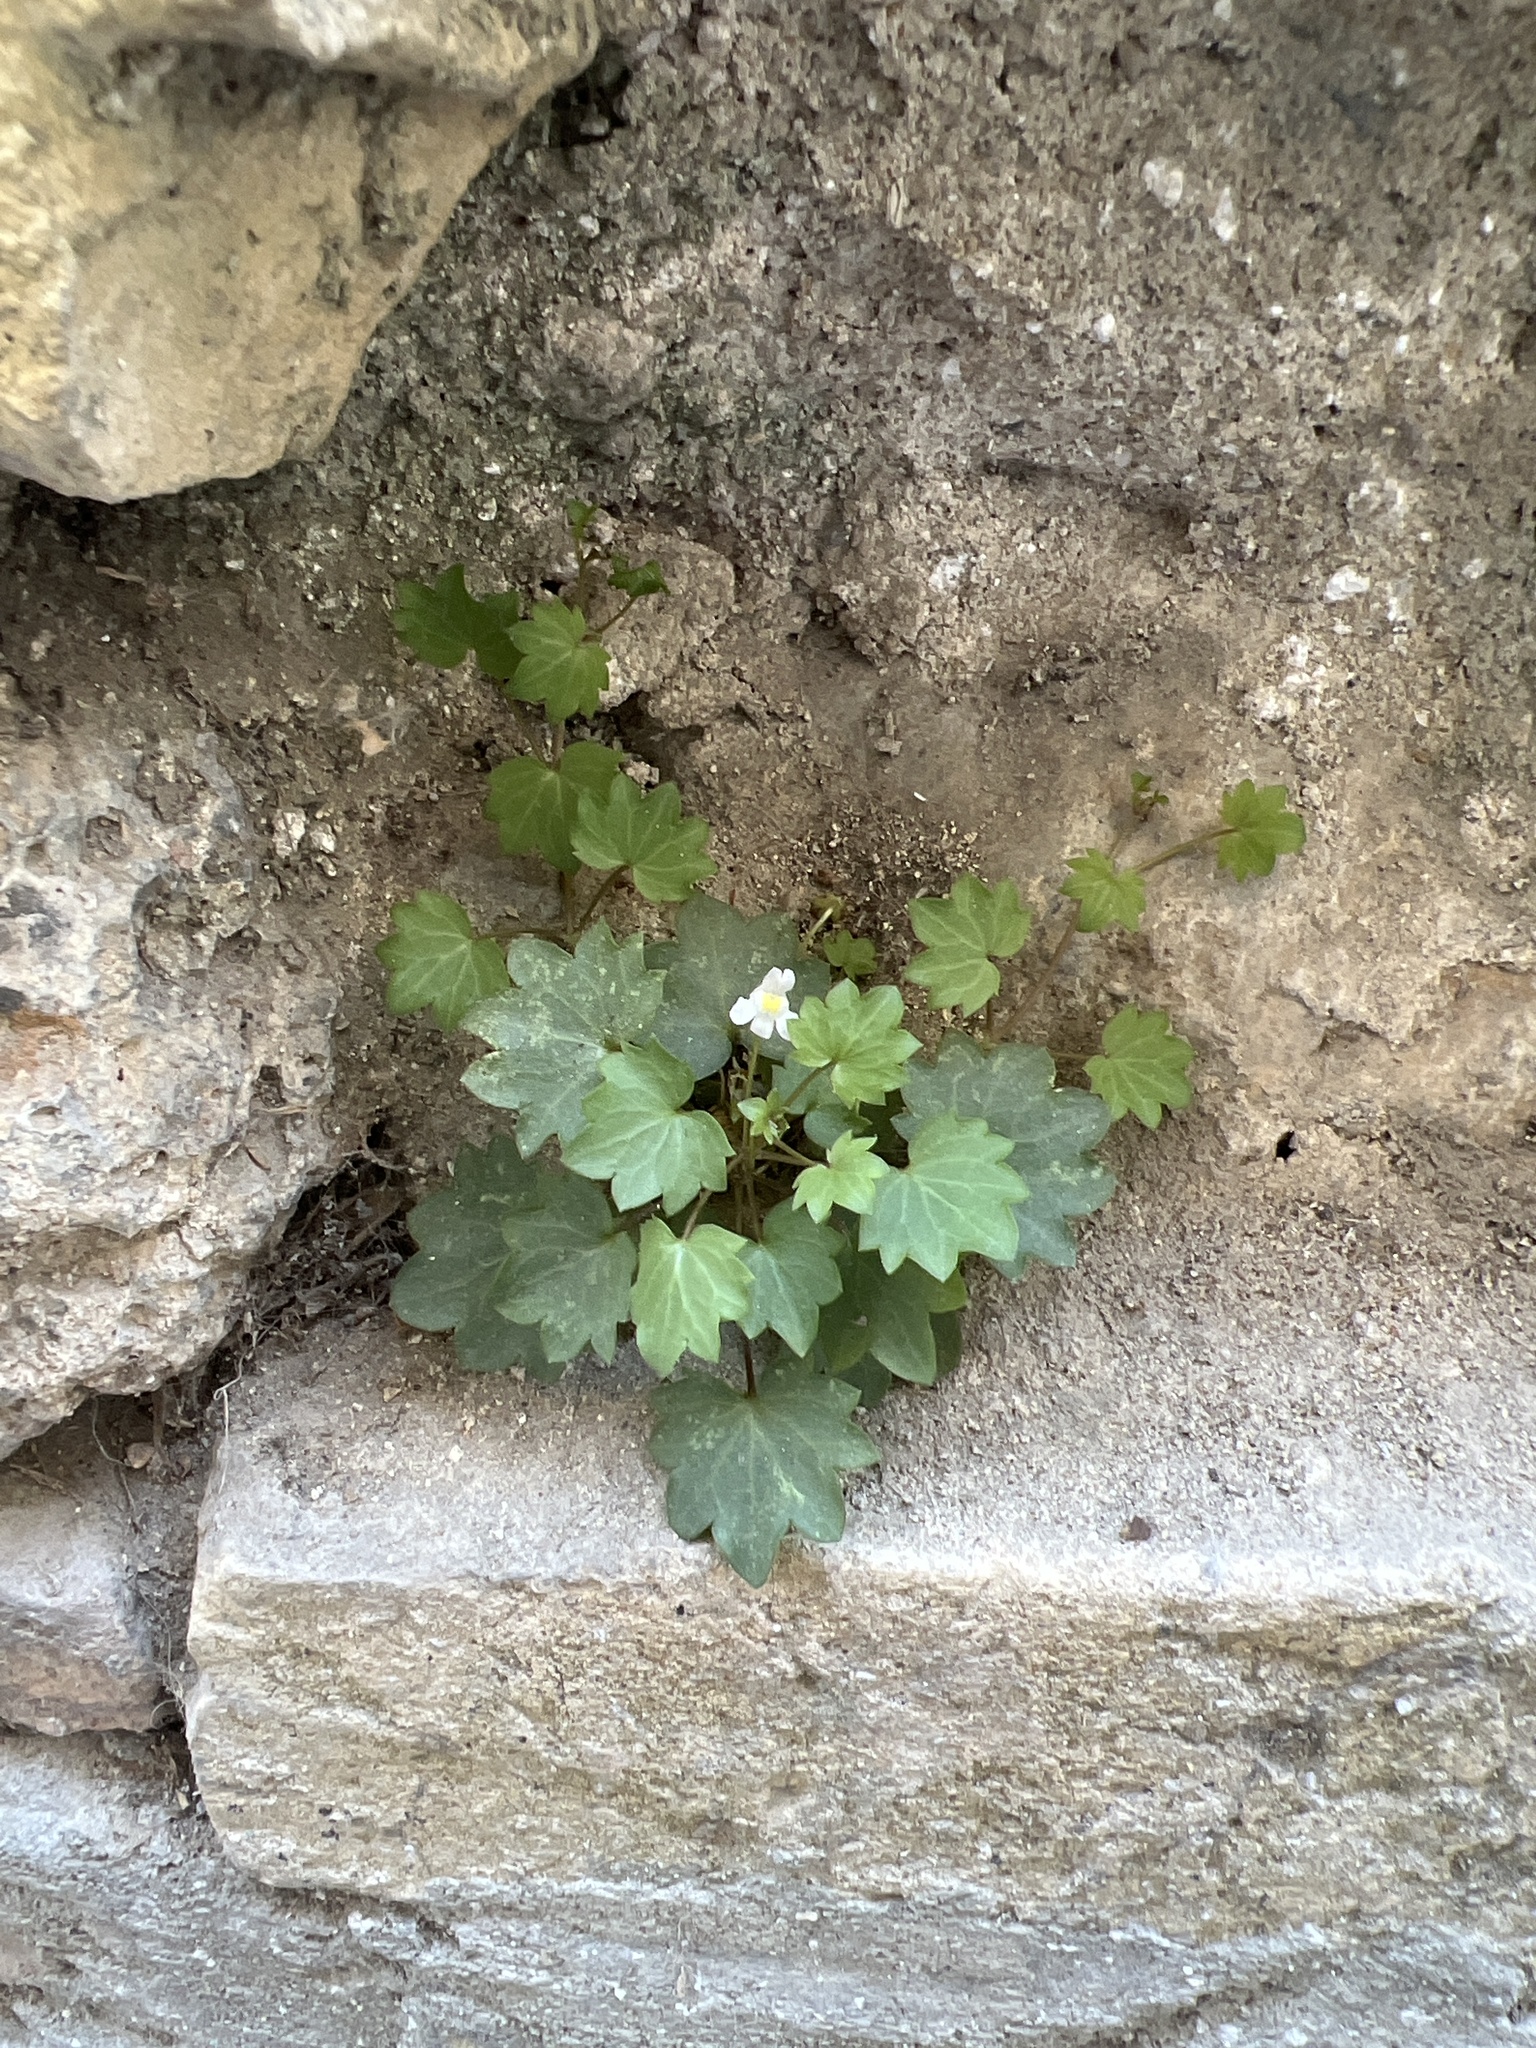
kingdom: Plantae
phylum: Tracheophyta
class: Magnoliopsida
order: Lamiales
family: Plantaginaceae
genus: Cymbalaria
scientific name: Cymbalaria muralis
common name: Ivy-leaved toadflax
